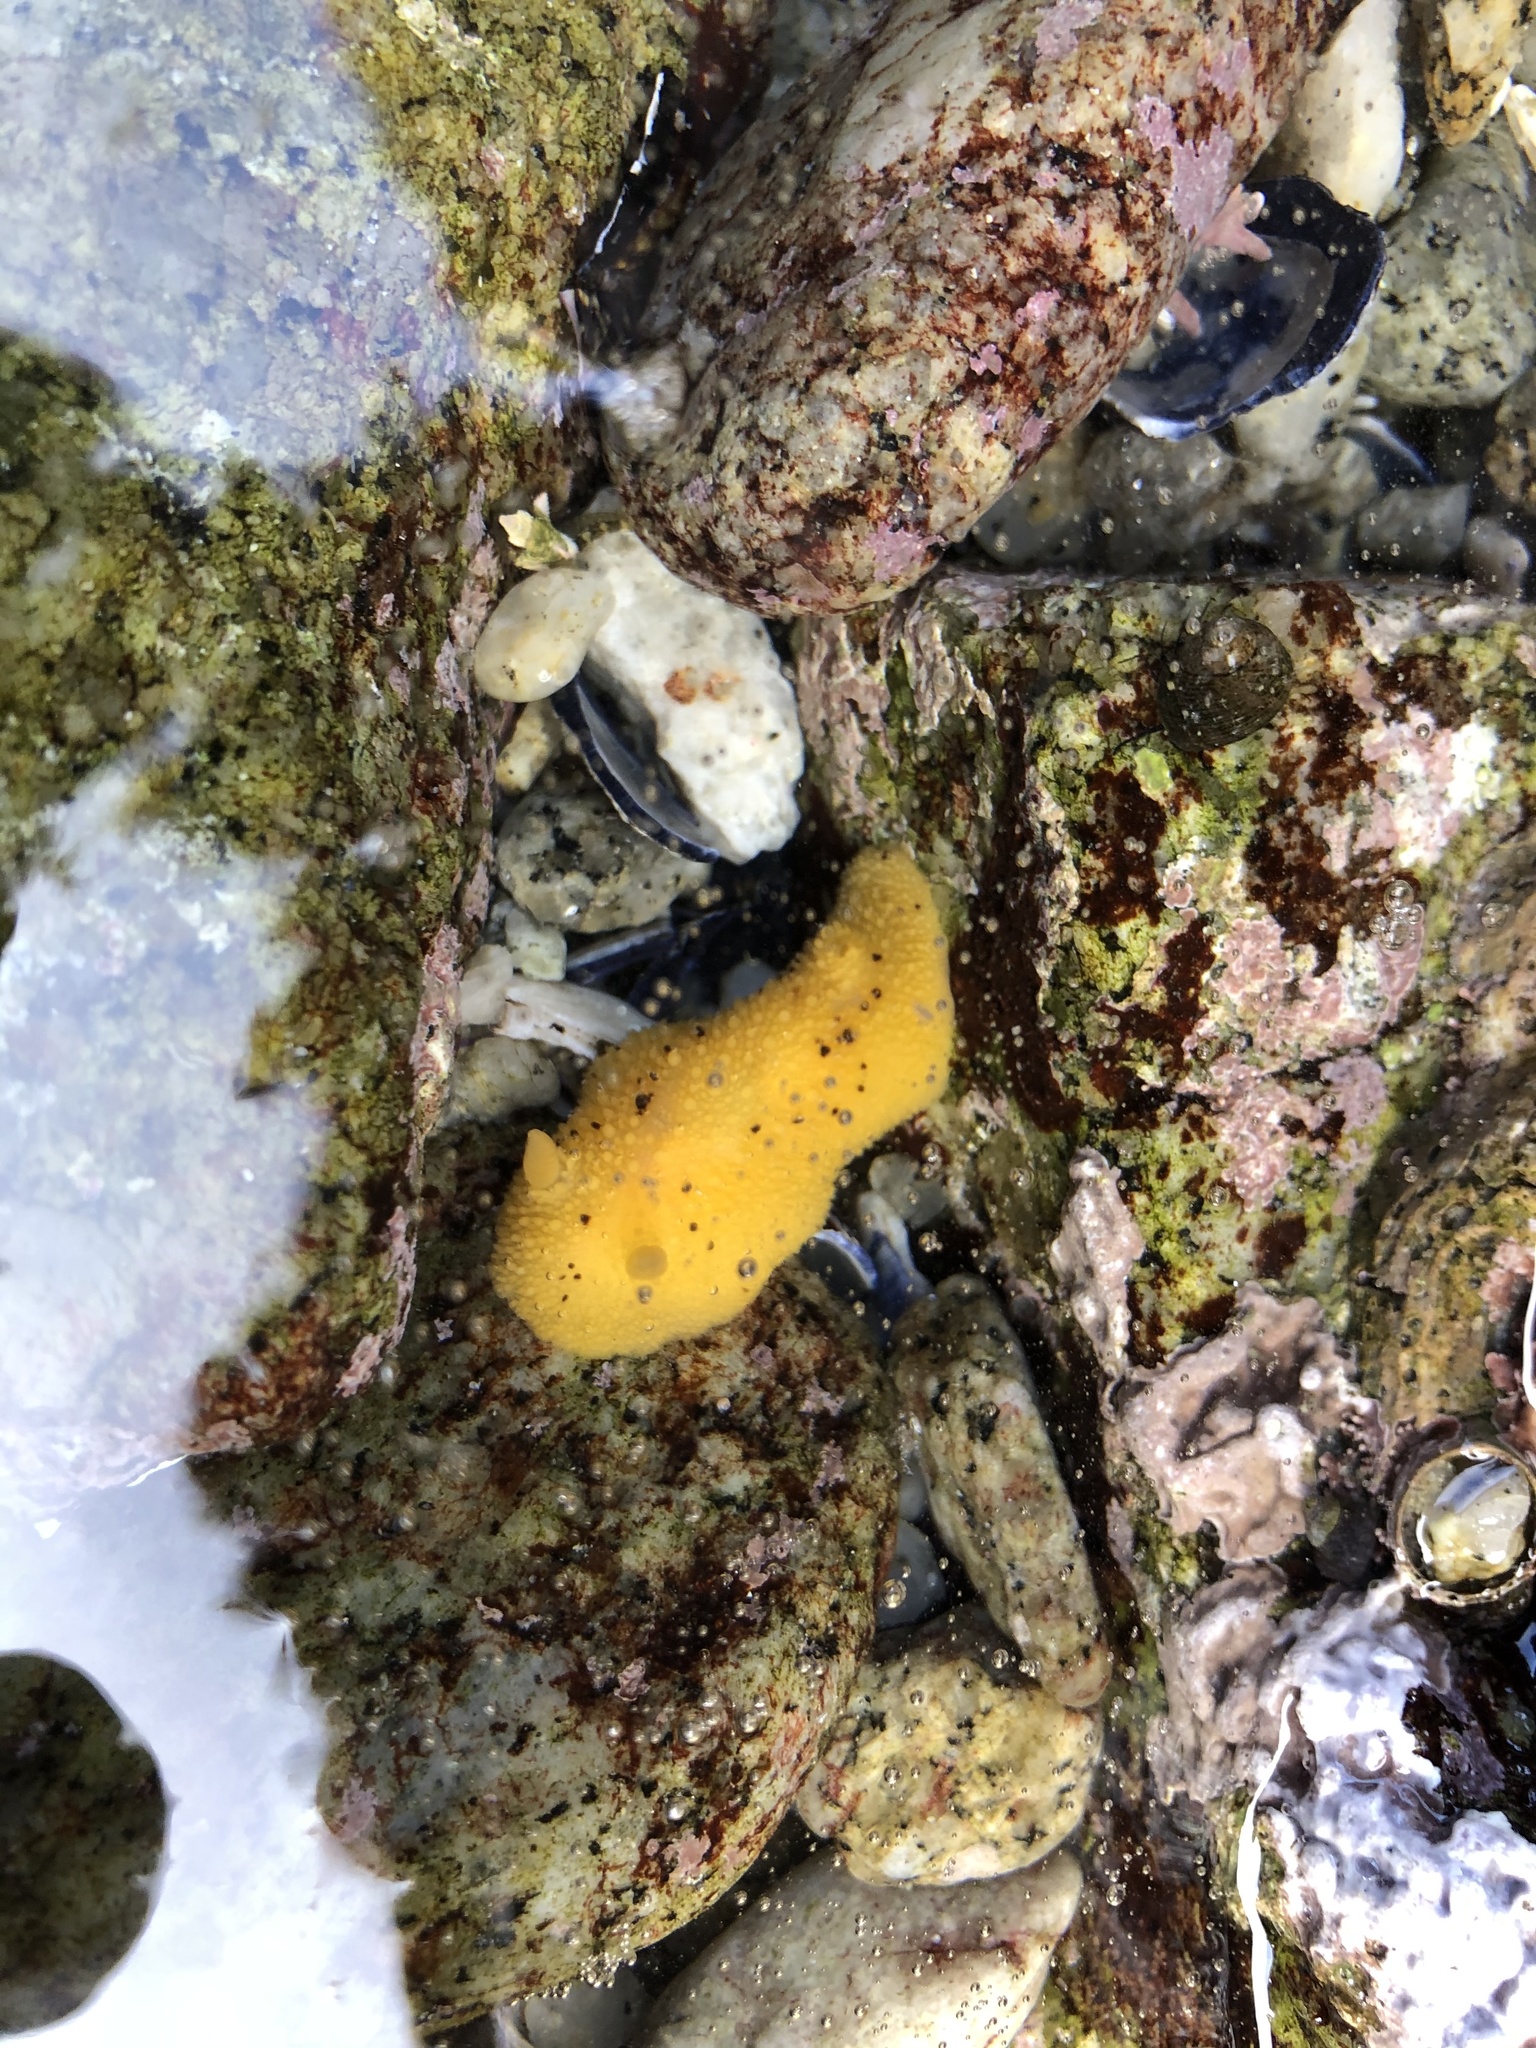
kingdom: Animalia
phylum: Mollusca
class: Gastropoda
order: Nudibranchia
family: Discodorididae
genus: Peltodoris
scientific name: Peltodoris nobilis
